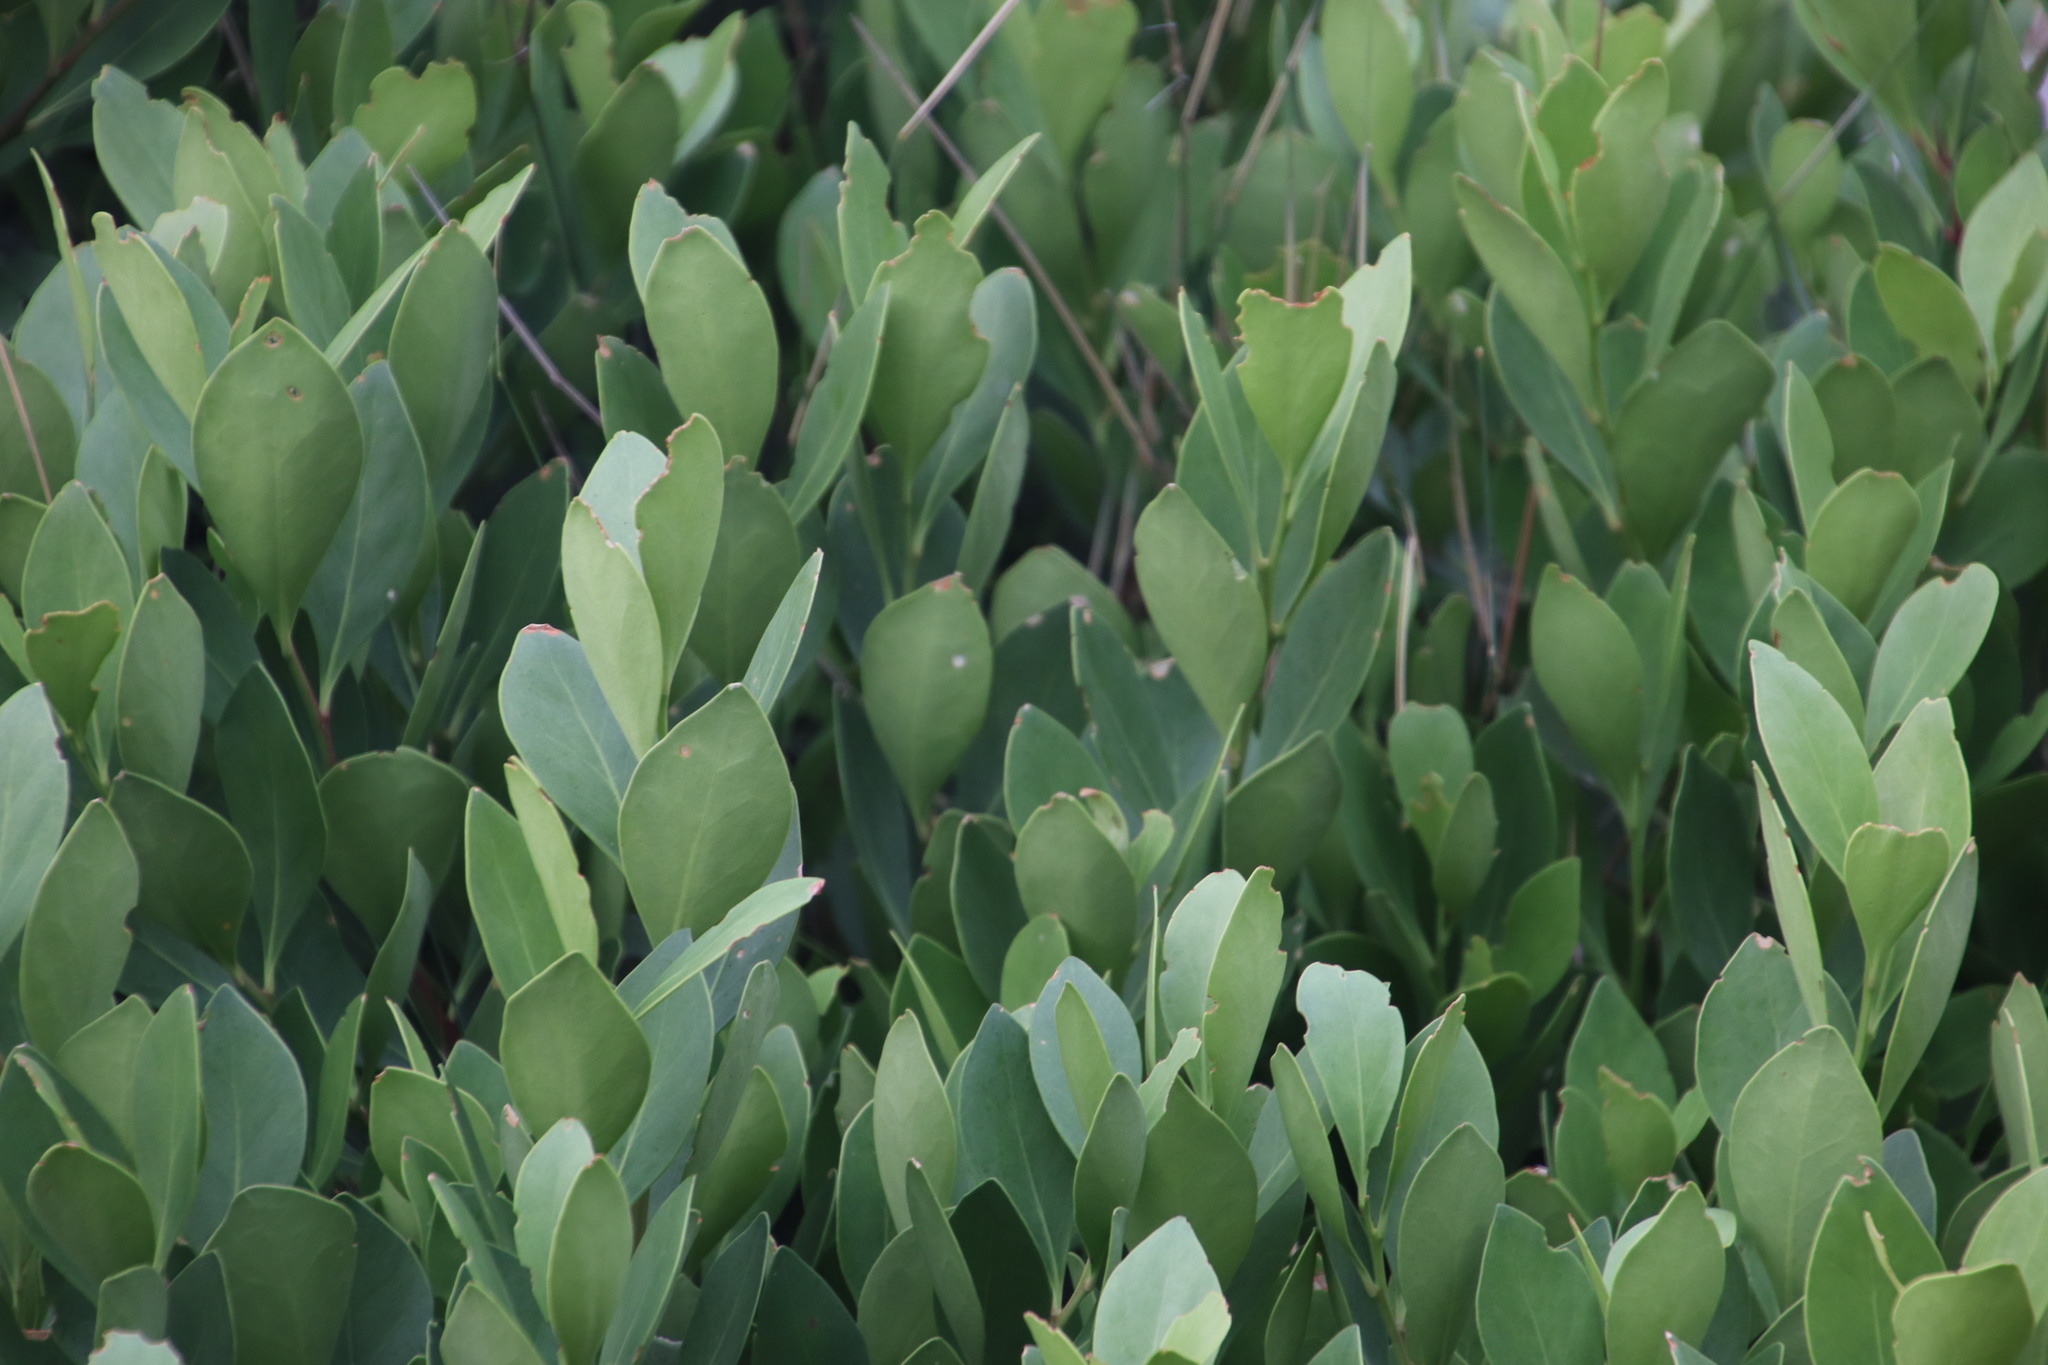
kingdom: Plantae
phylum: Tracheophyta
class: Magnoliopsida
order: Santalales
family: Santalaceae
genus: Osyris
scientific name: Osyris compressa
